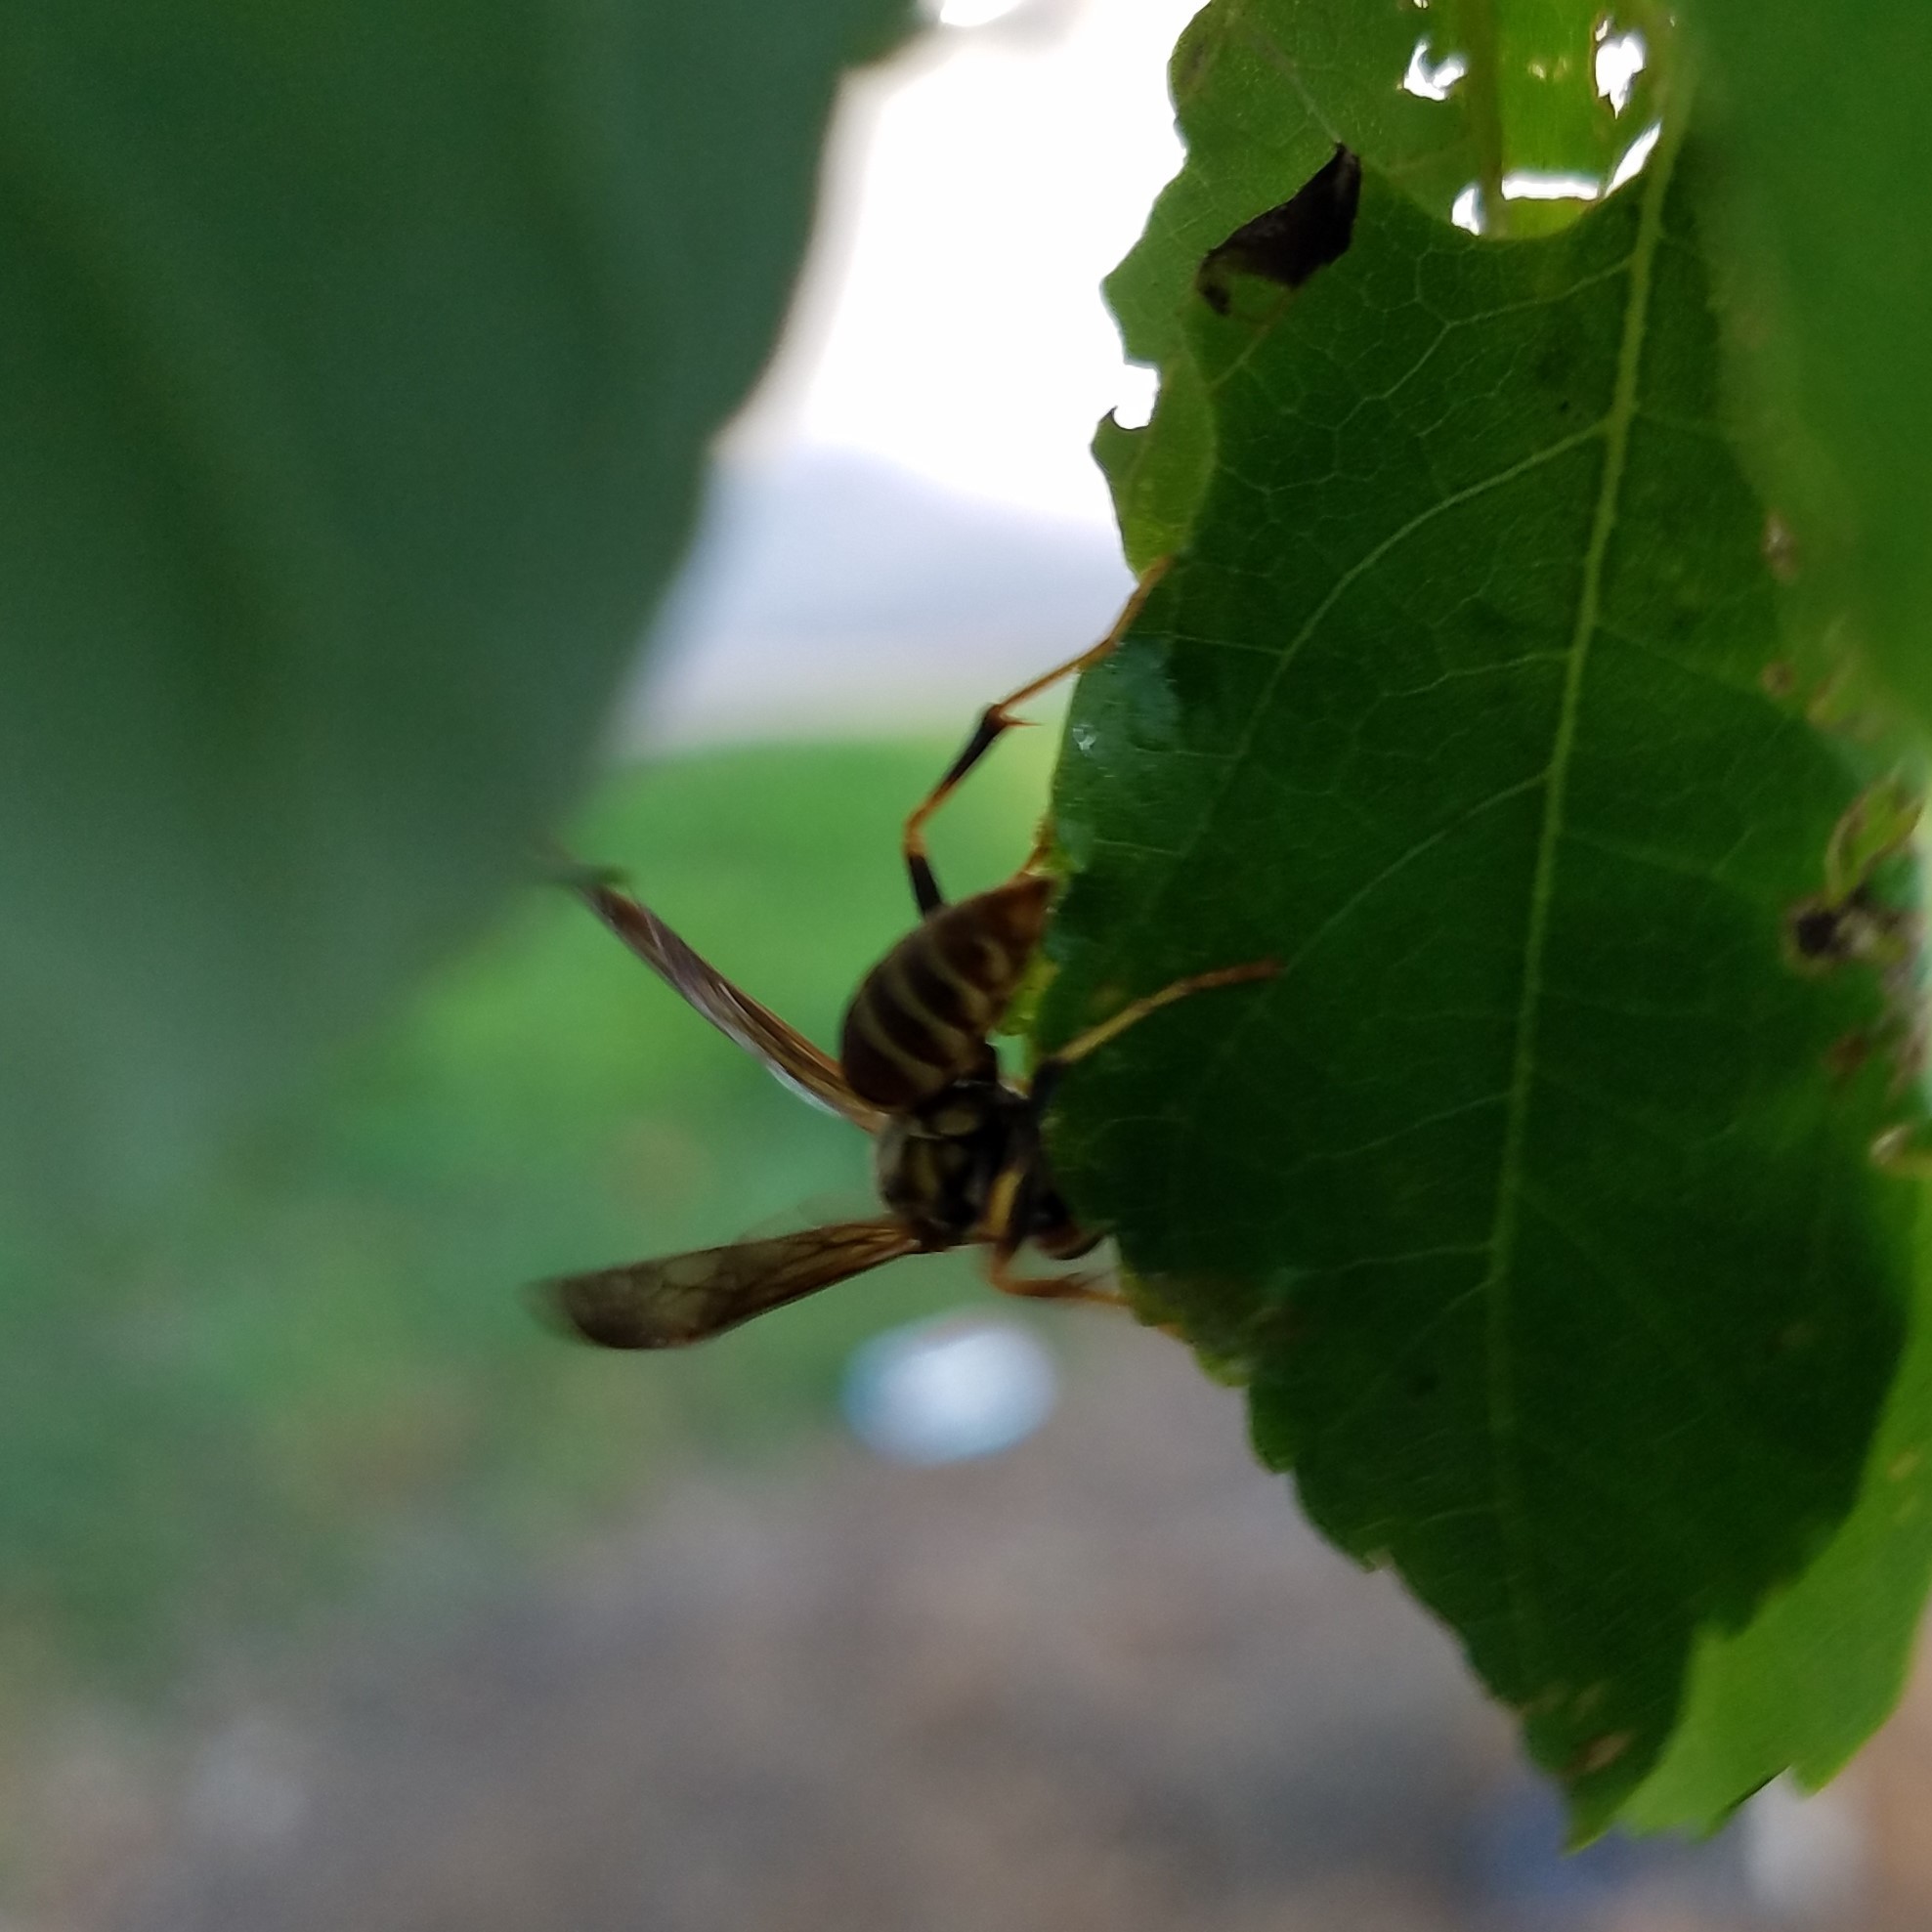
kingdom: Animalia
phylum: Arthropoda
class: Insecta
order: Hymenoptera
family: Eumenidae
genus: Polistes
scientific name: Polistes exclamans
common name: Paper wasp
